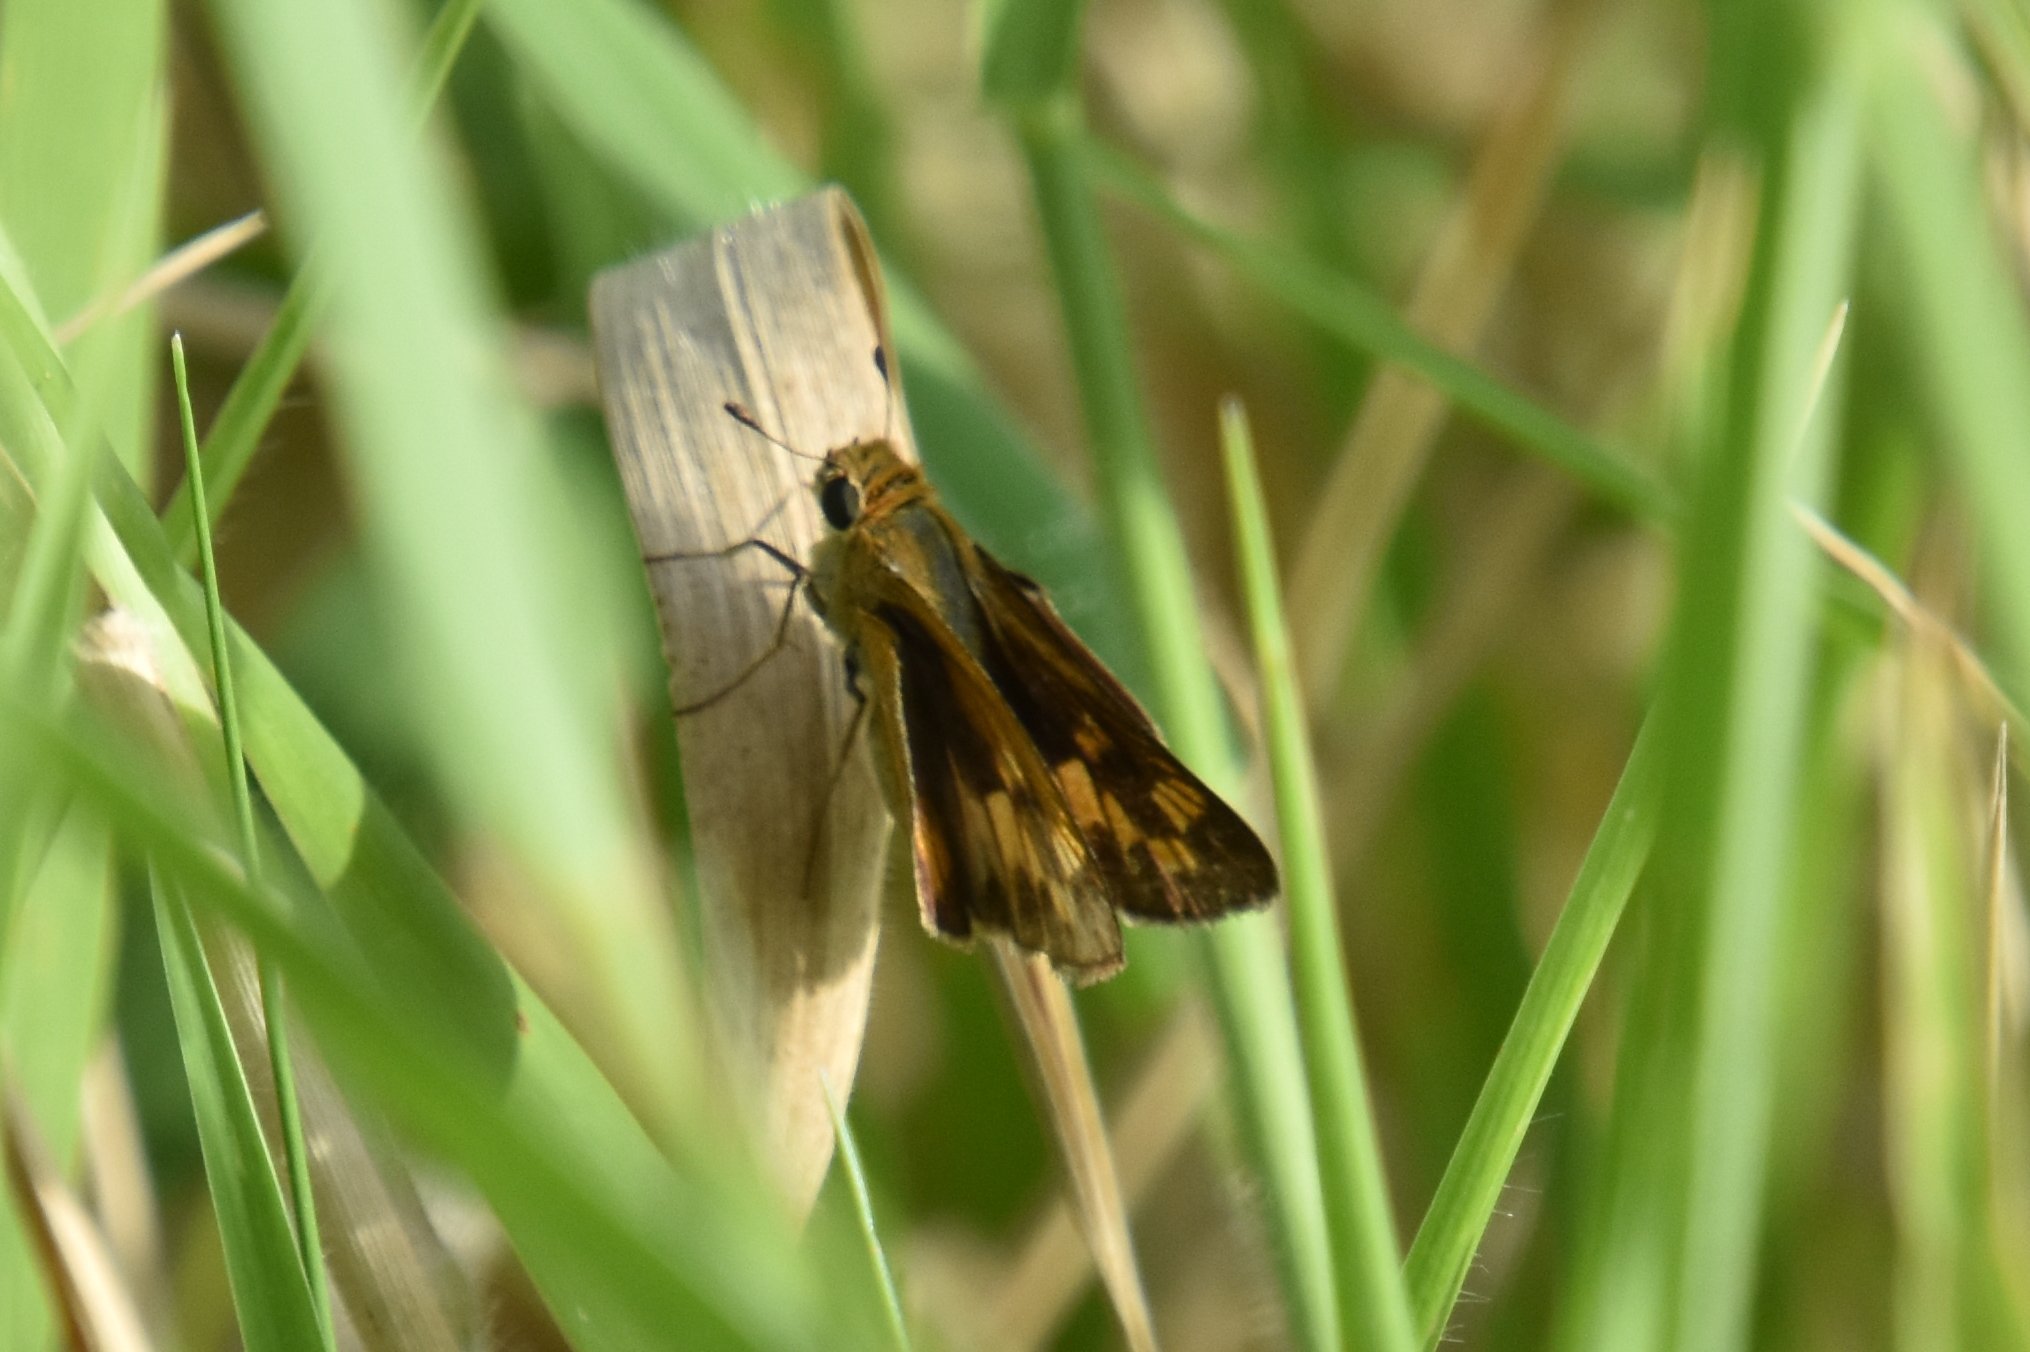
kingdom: Animalia
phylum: Arthropoda
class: Insecta
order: Lepidoptera
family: Hesperiidae
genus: Hylephila
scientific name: Hylephila phyleus
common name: Fiery skipper
